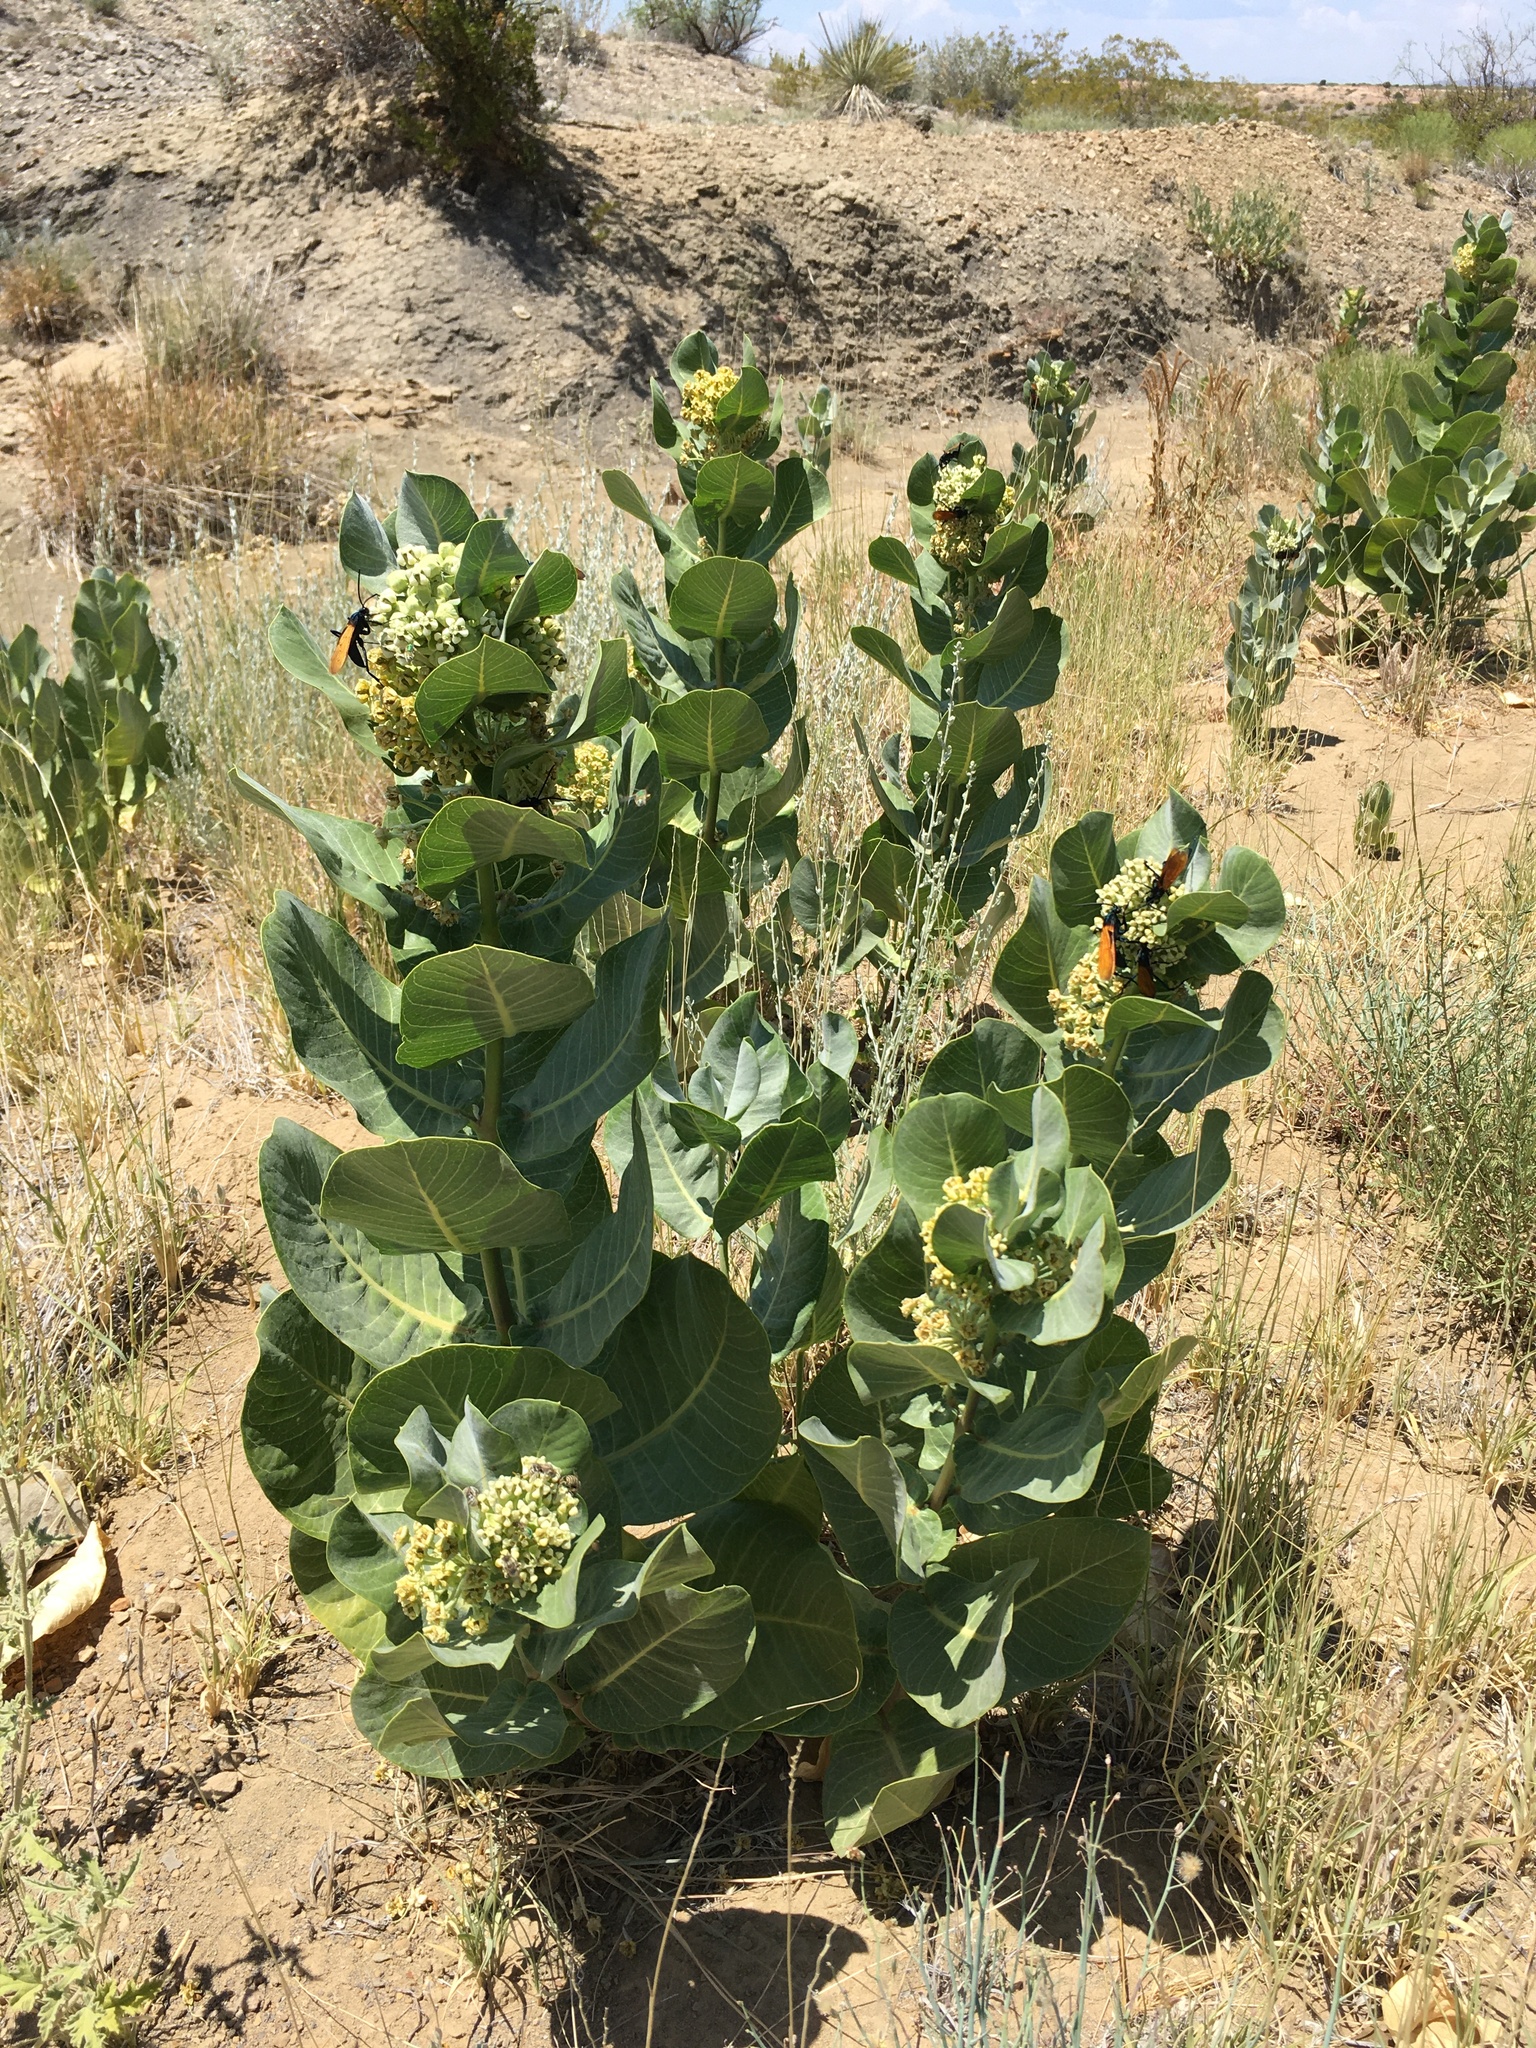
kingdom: Plantae
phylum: Tracheophyta
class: Magnoliopsida
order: Gentianales
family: Apocynaceae
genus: Asclepias
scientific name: Asclepias latifolia
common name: Broadleaf milkweed
